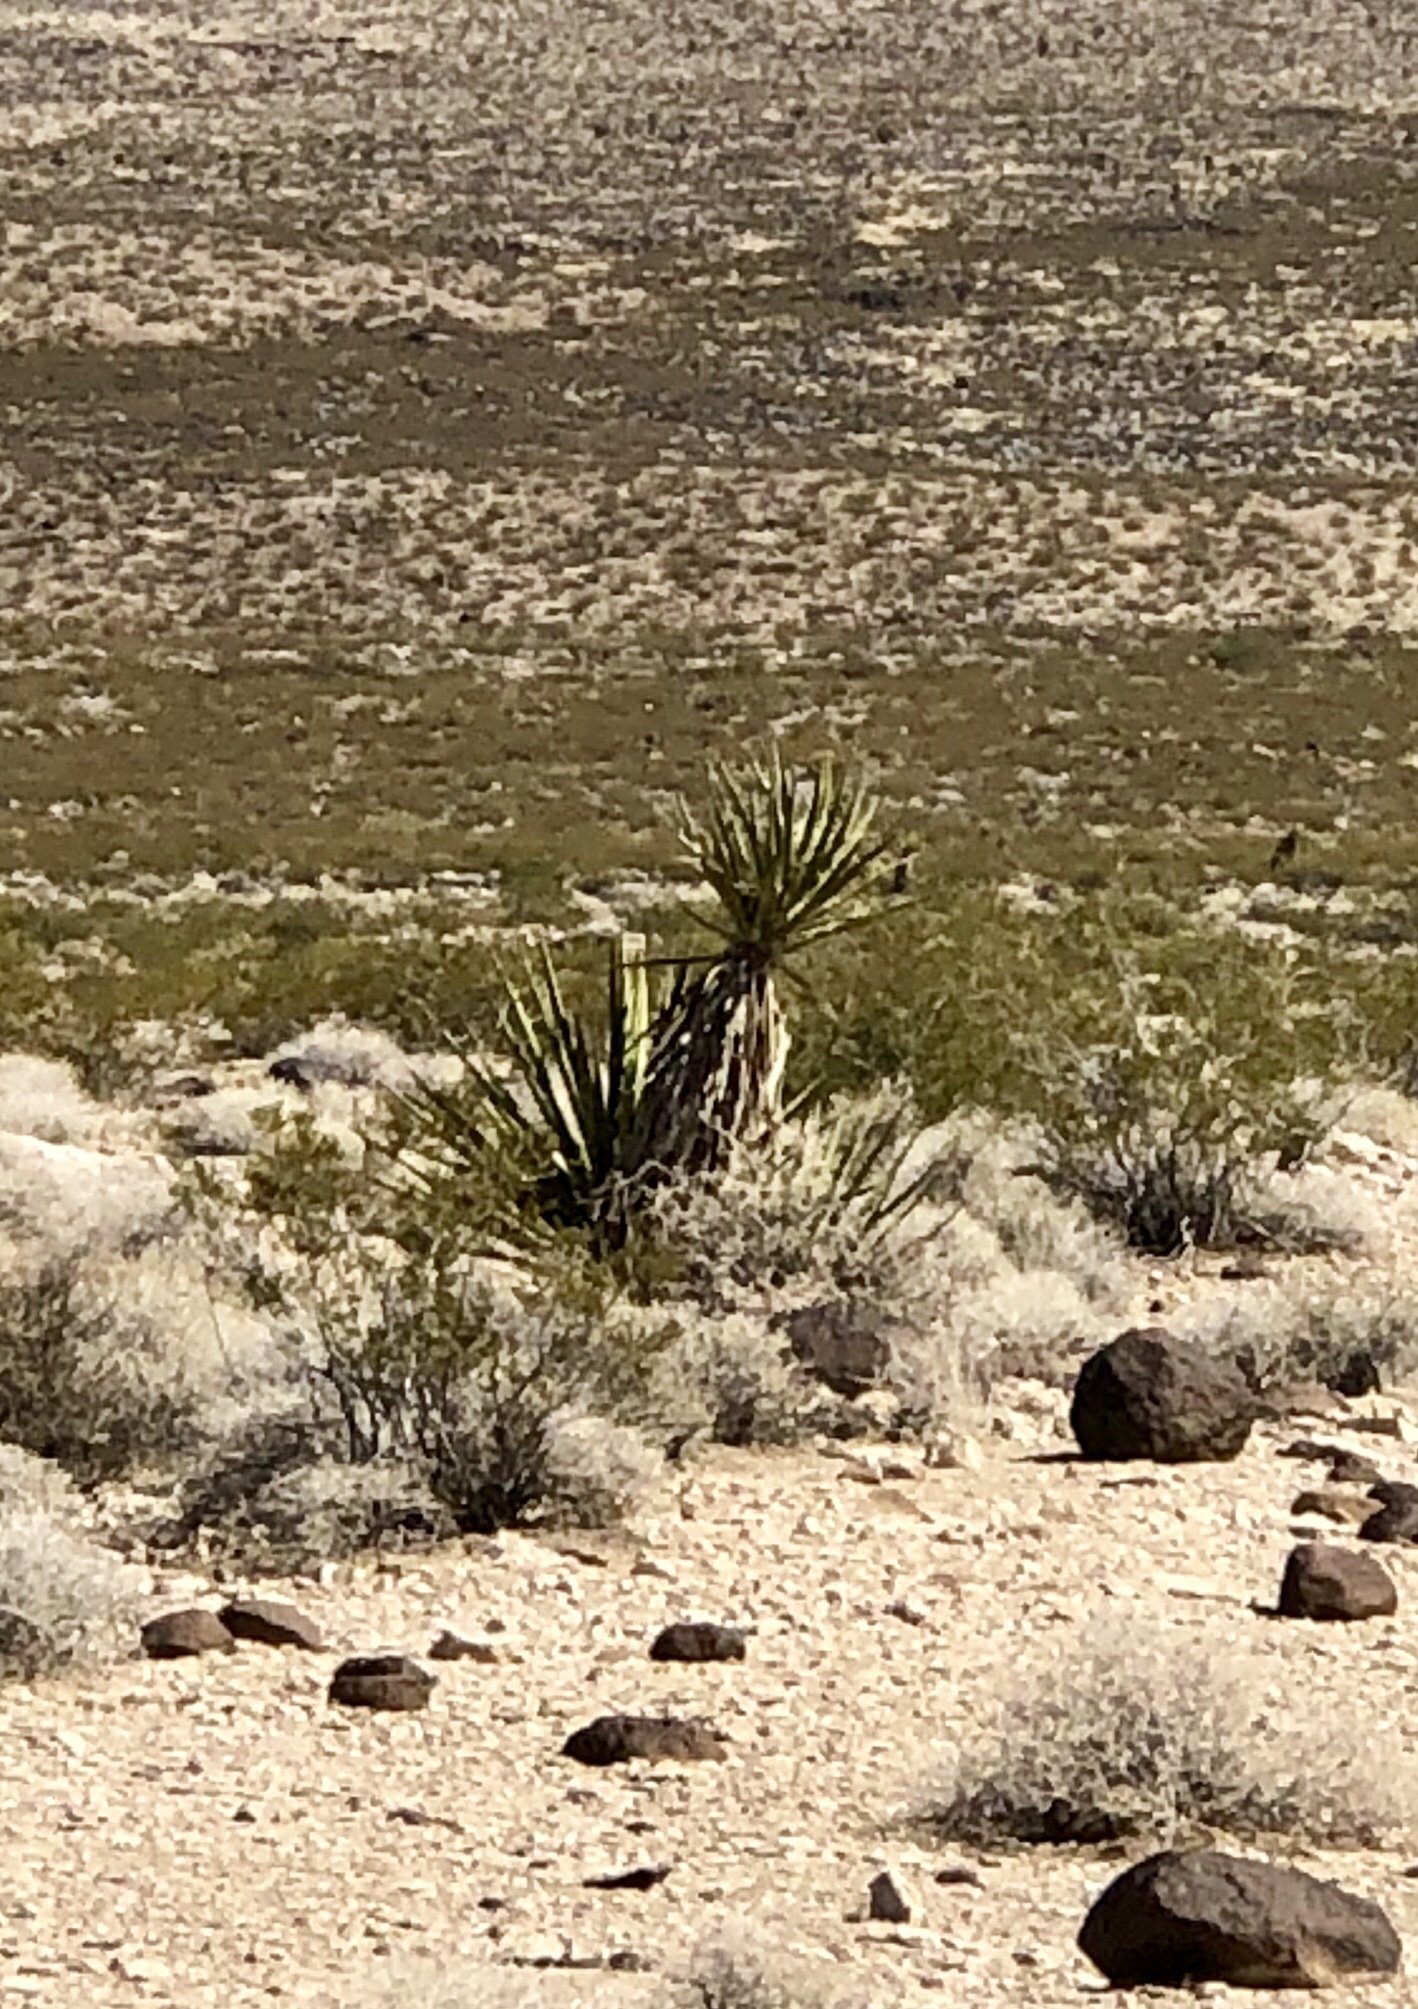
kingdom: Plantae
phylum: Tracheophyta
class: Liliopsida
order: Asparagales
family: Asparagaceae
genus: Yucca
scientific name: Yucca schidigera
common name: Mojave yucca
